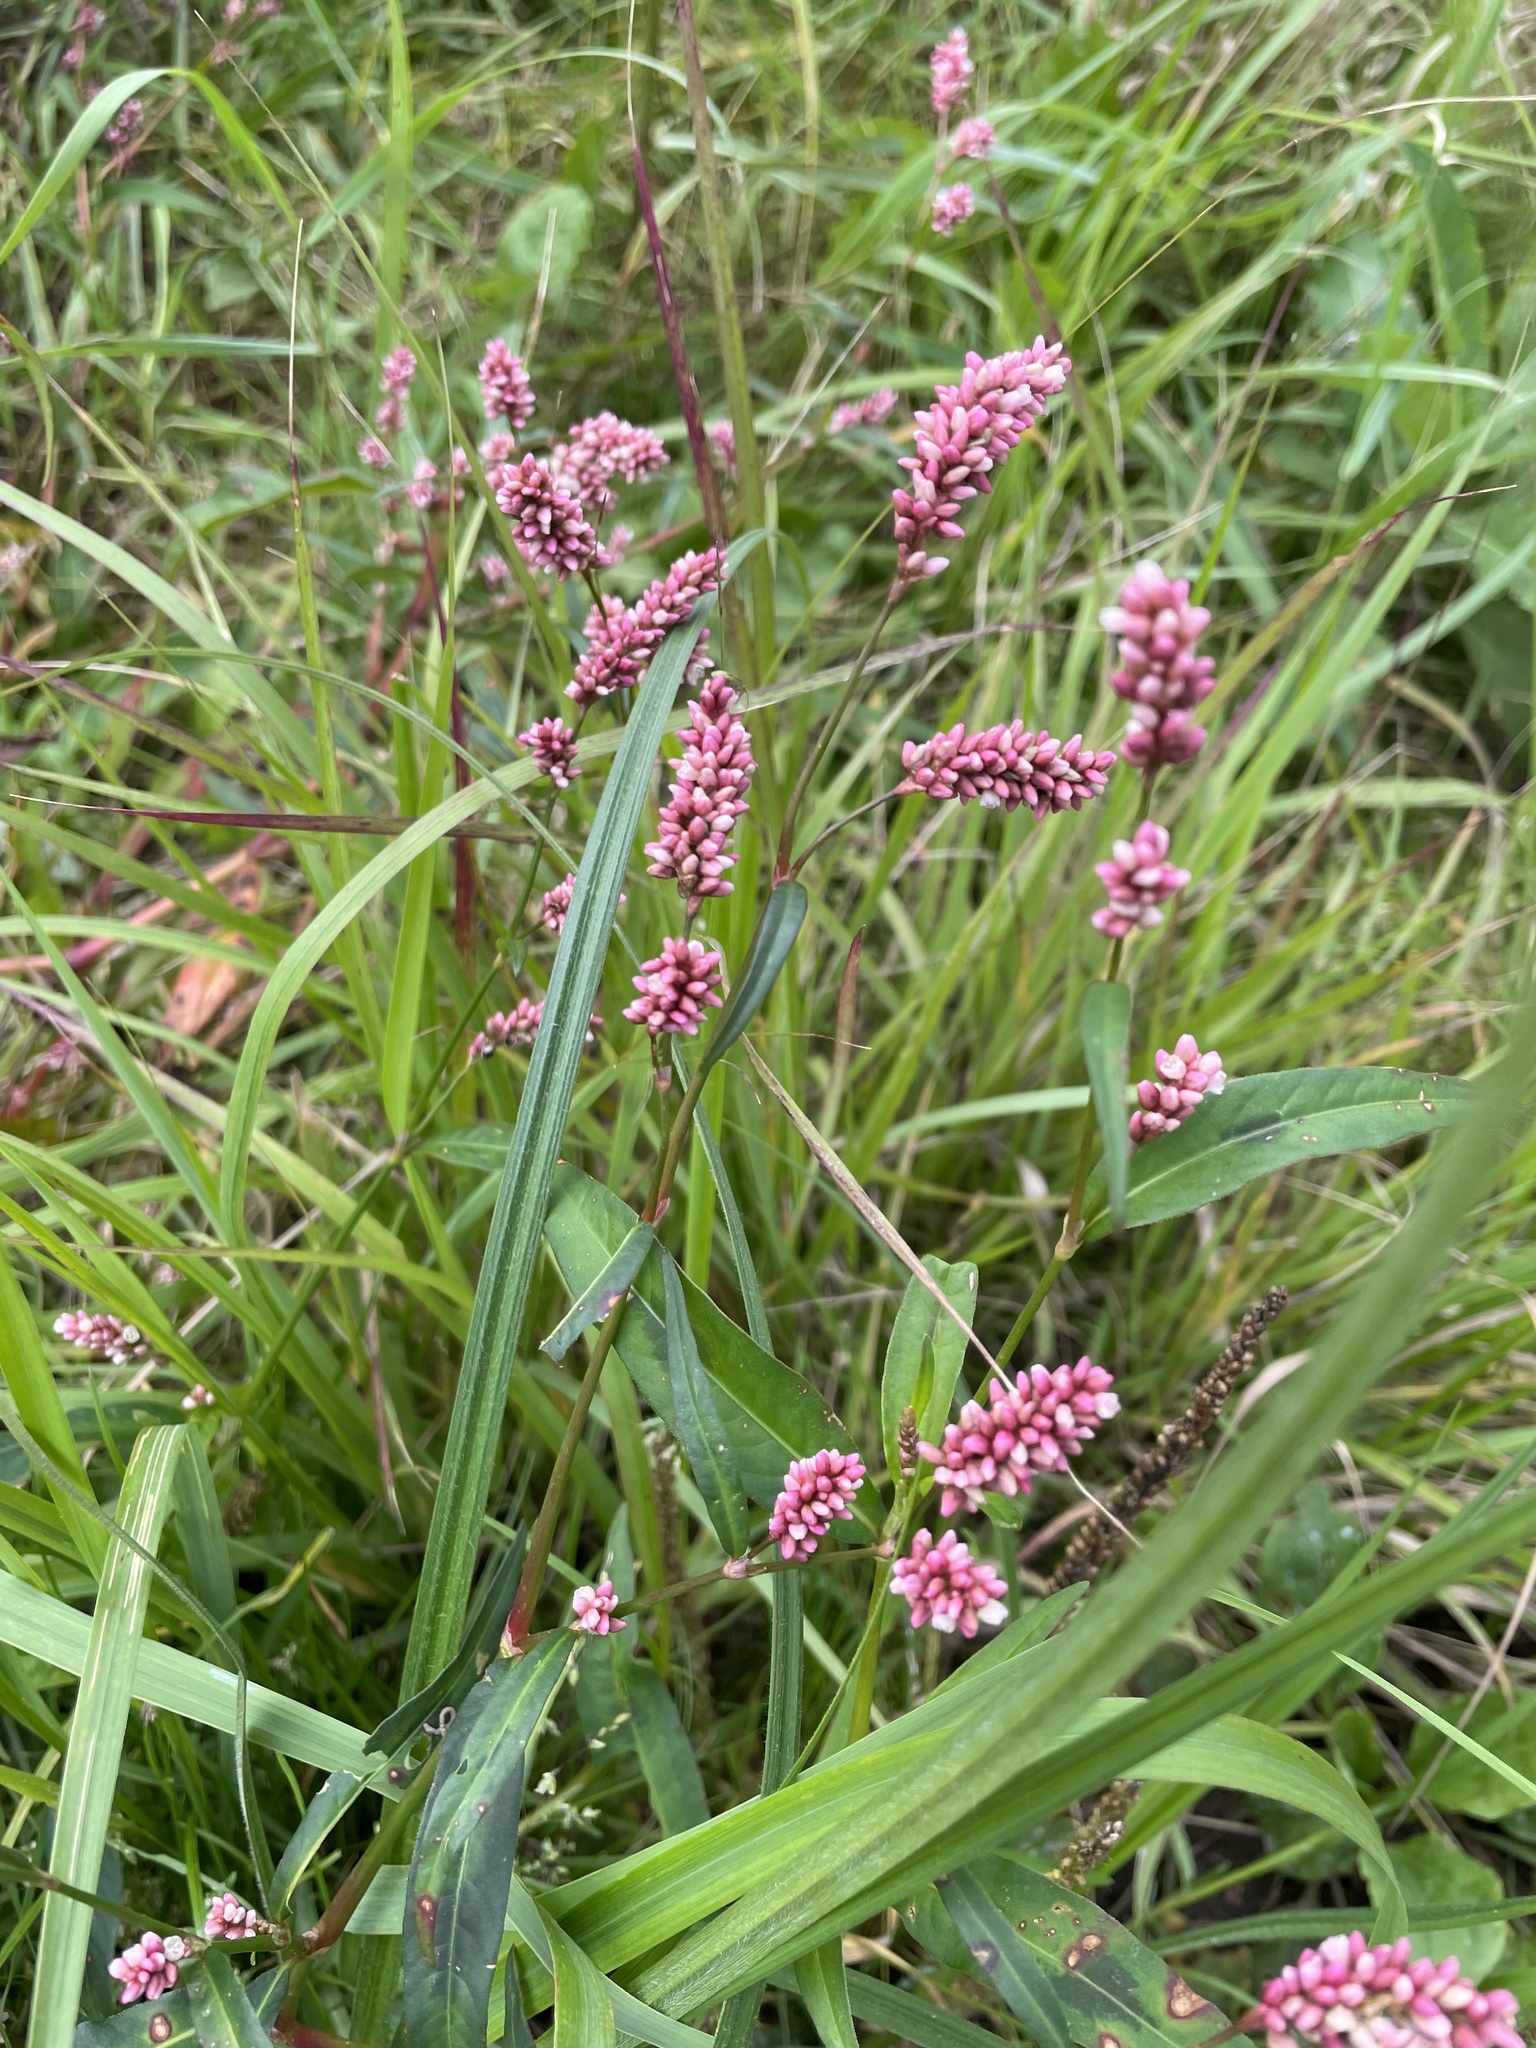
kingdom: Plantae
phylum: Tracheophyta
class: Magnoliopsida
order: Caryophyllales
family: Polygonaceae
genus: Persicaria
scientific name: Persicaria maculosa
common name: Redshank
